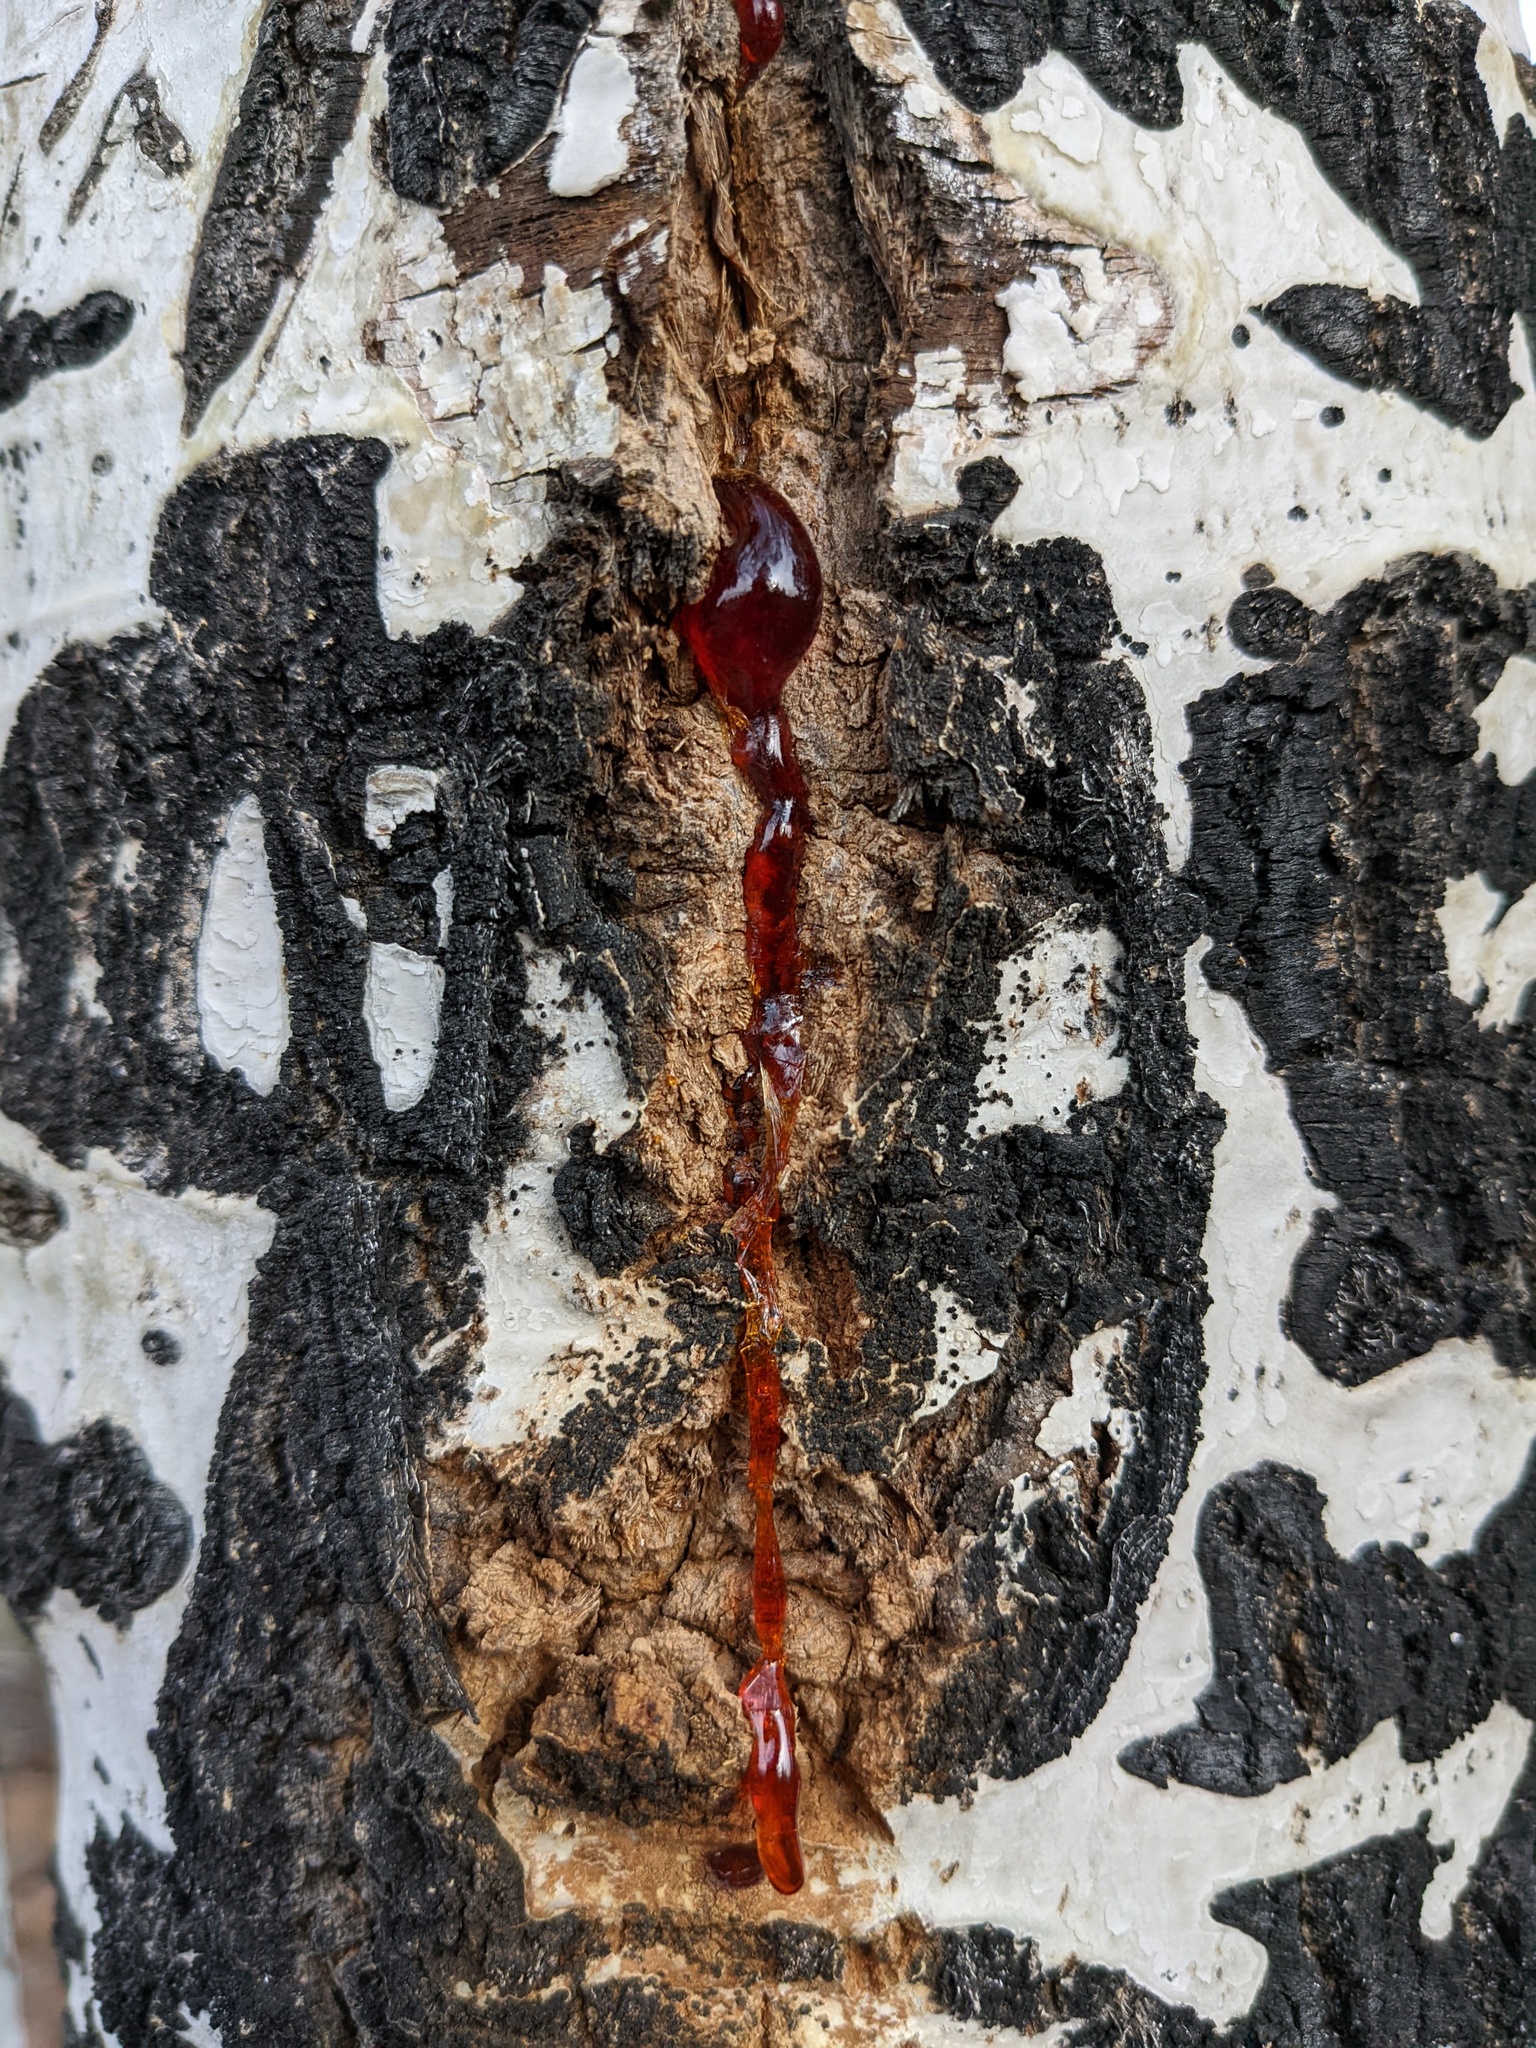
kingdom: Plantae
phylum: Tracheophyta
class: Magnoliopsida
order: Malpighiales
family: Salicaceae
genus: Populus
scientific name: Populus tremuloides
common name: Quaking aspen
